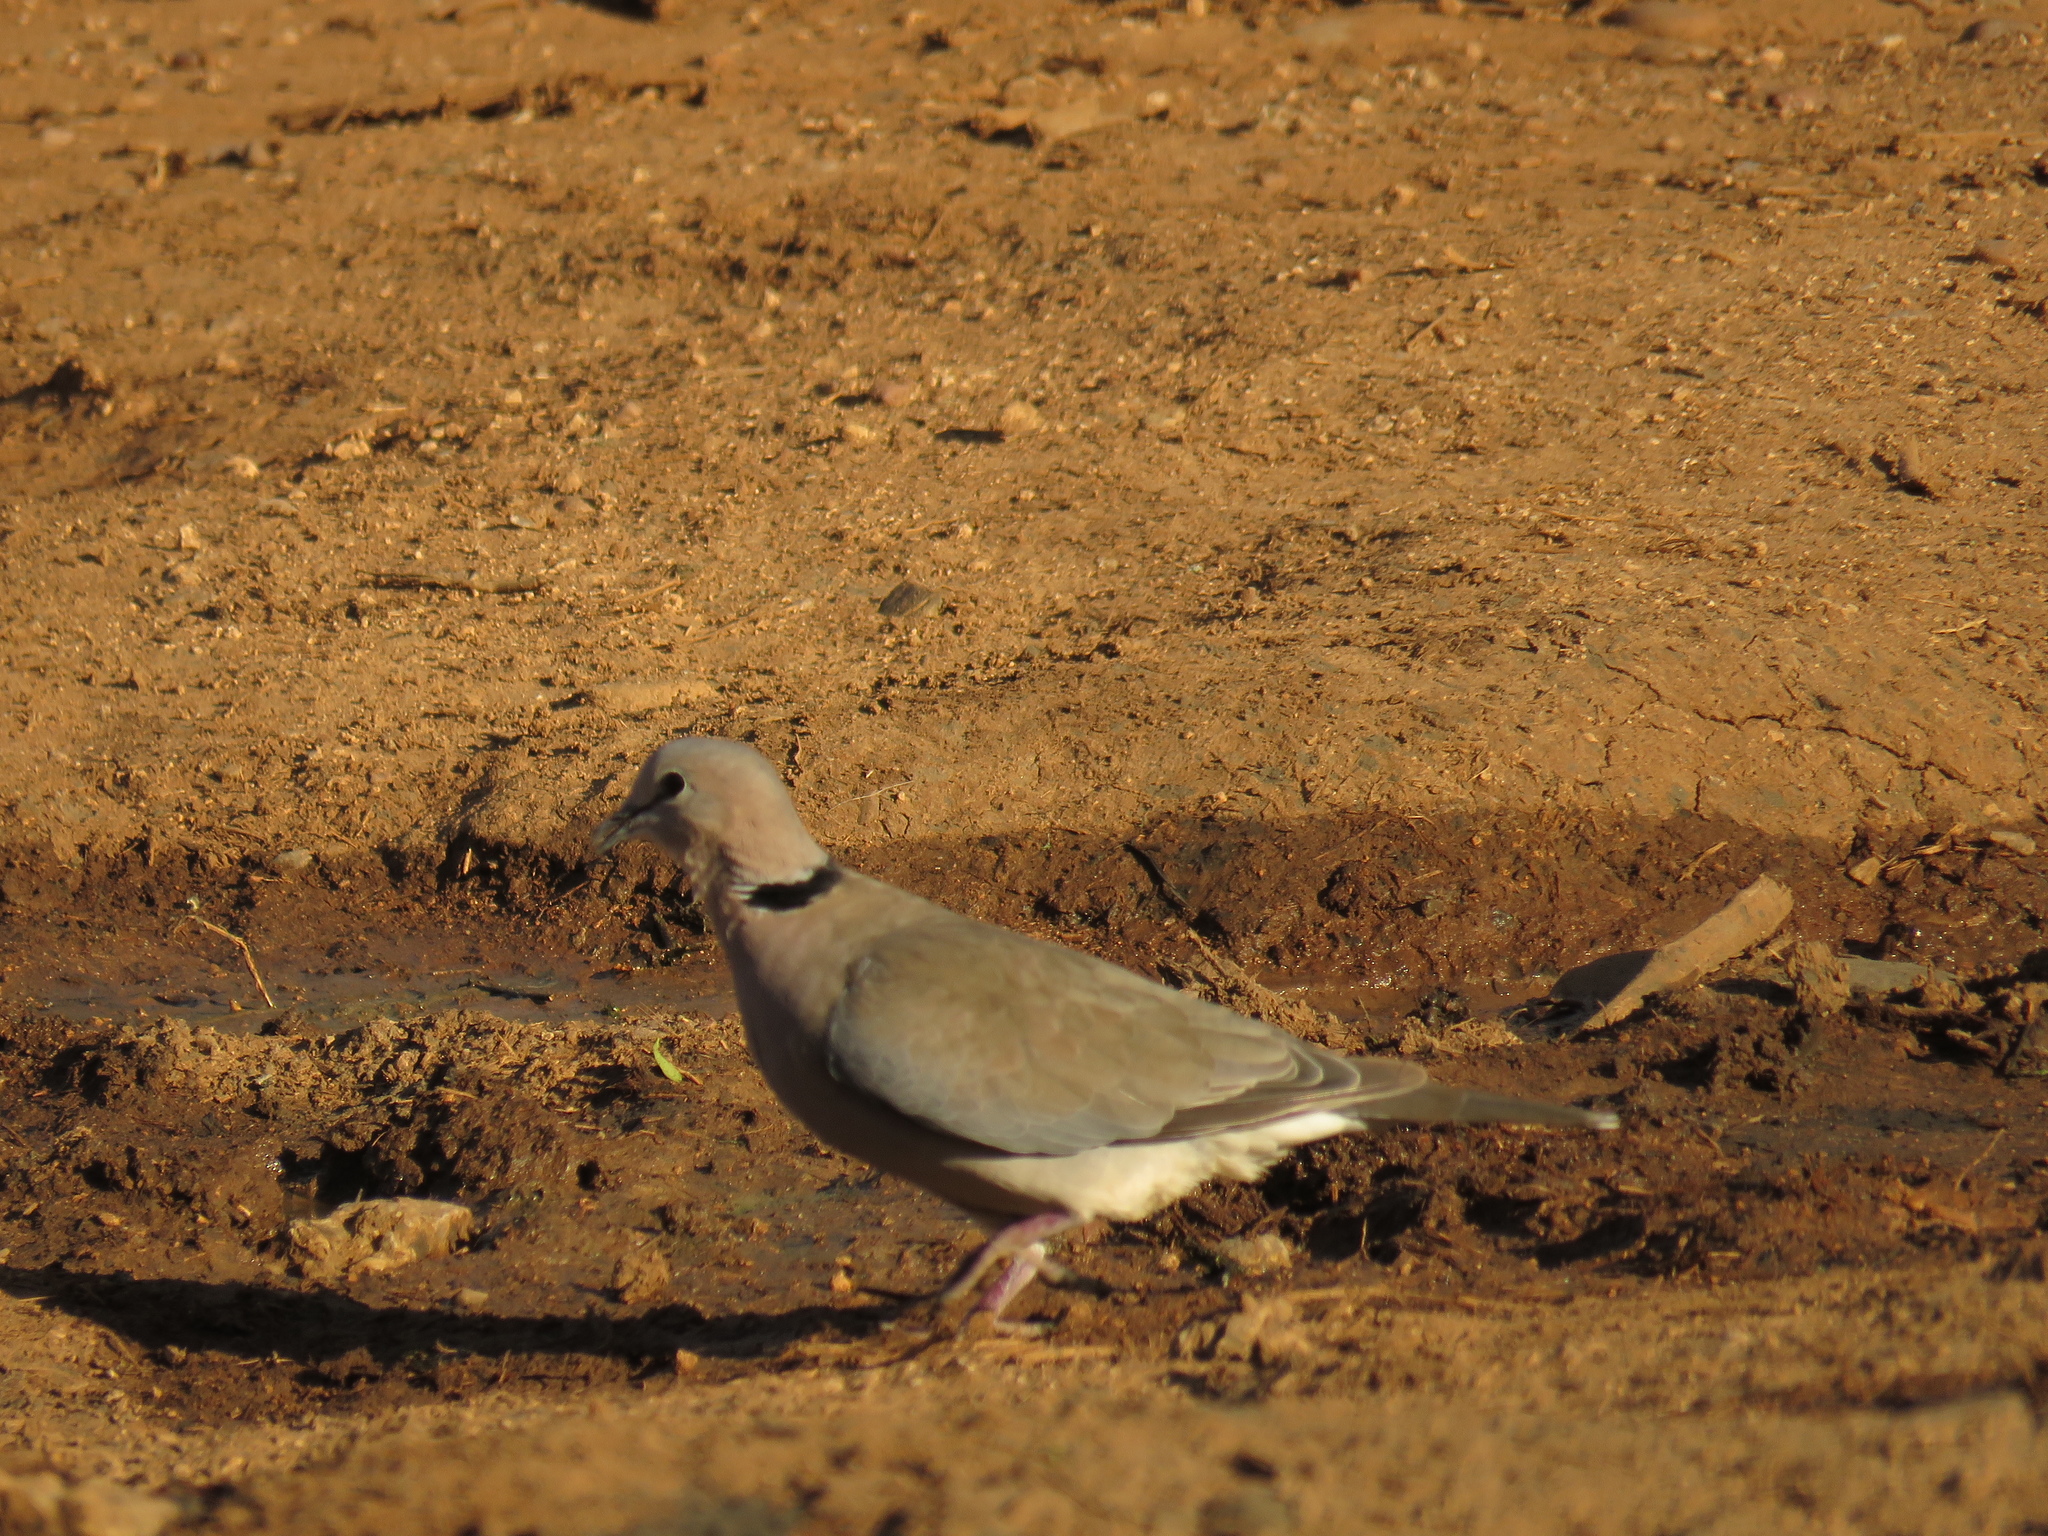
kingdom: Animalia
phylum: Chordata
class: Aves
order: Columbiformes
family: Columbidae
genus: Streptopelia
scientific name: Streptopelia capicola
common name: Ring-necked dove
